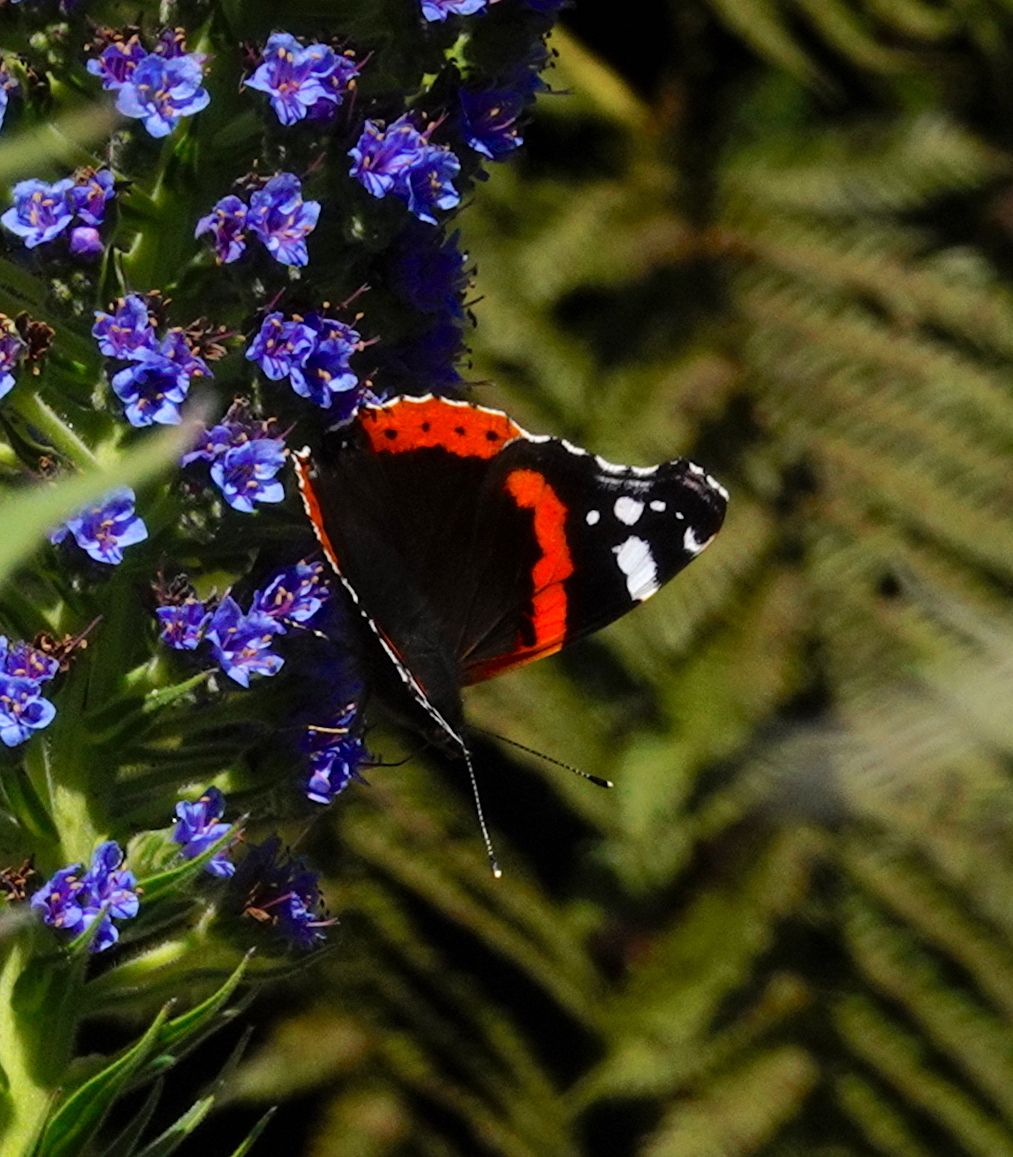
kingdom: Animalia
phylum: Arthropoda
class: Insecta
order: Lepidoptera
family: Nymphalidae
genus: Vanessa
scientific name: Vanessa atalanta
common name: Red admiral
